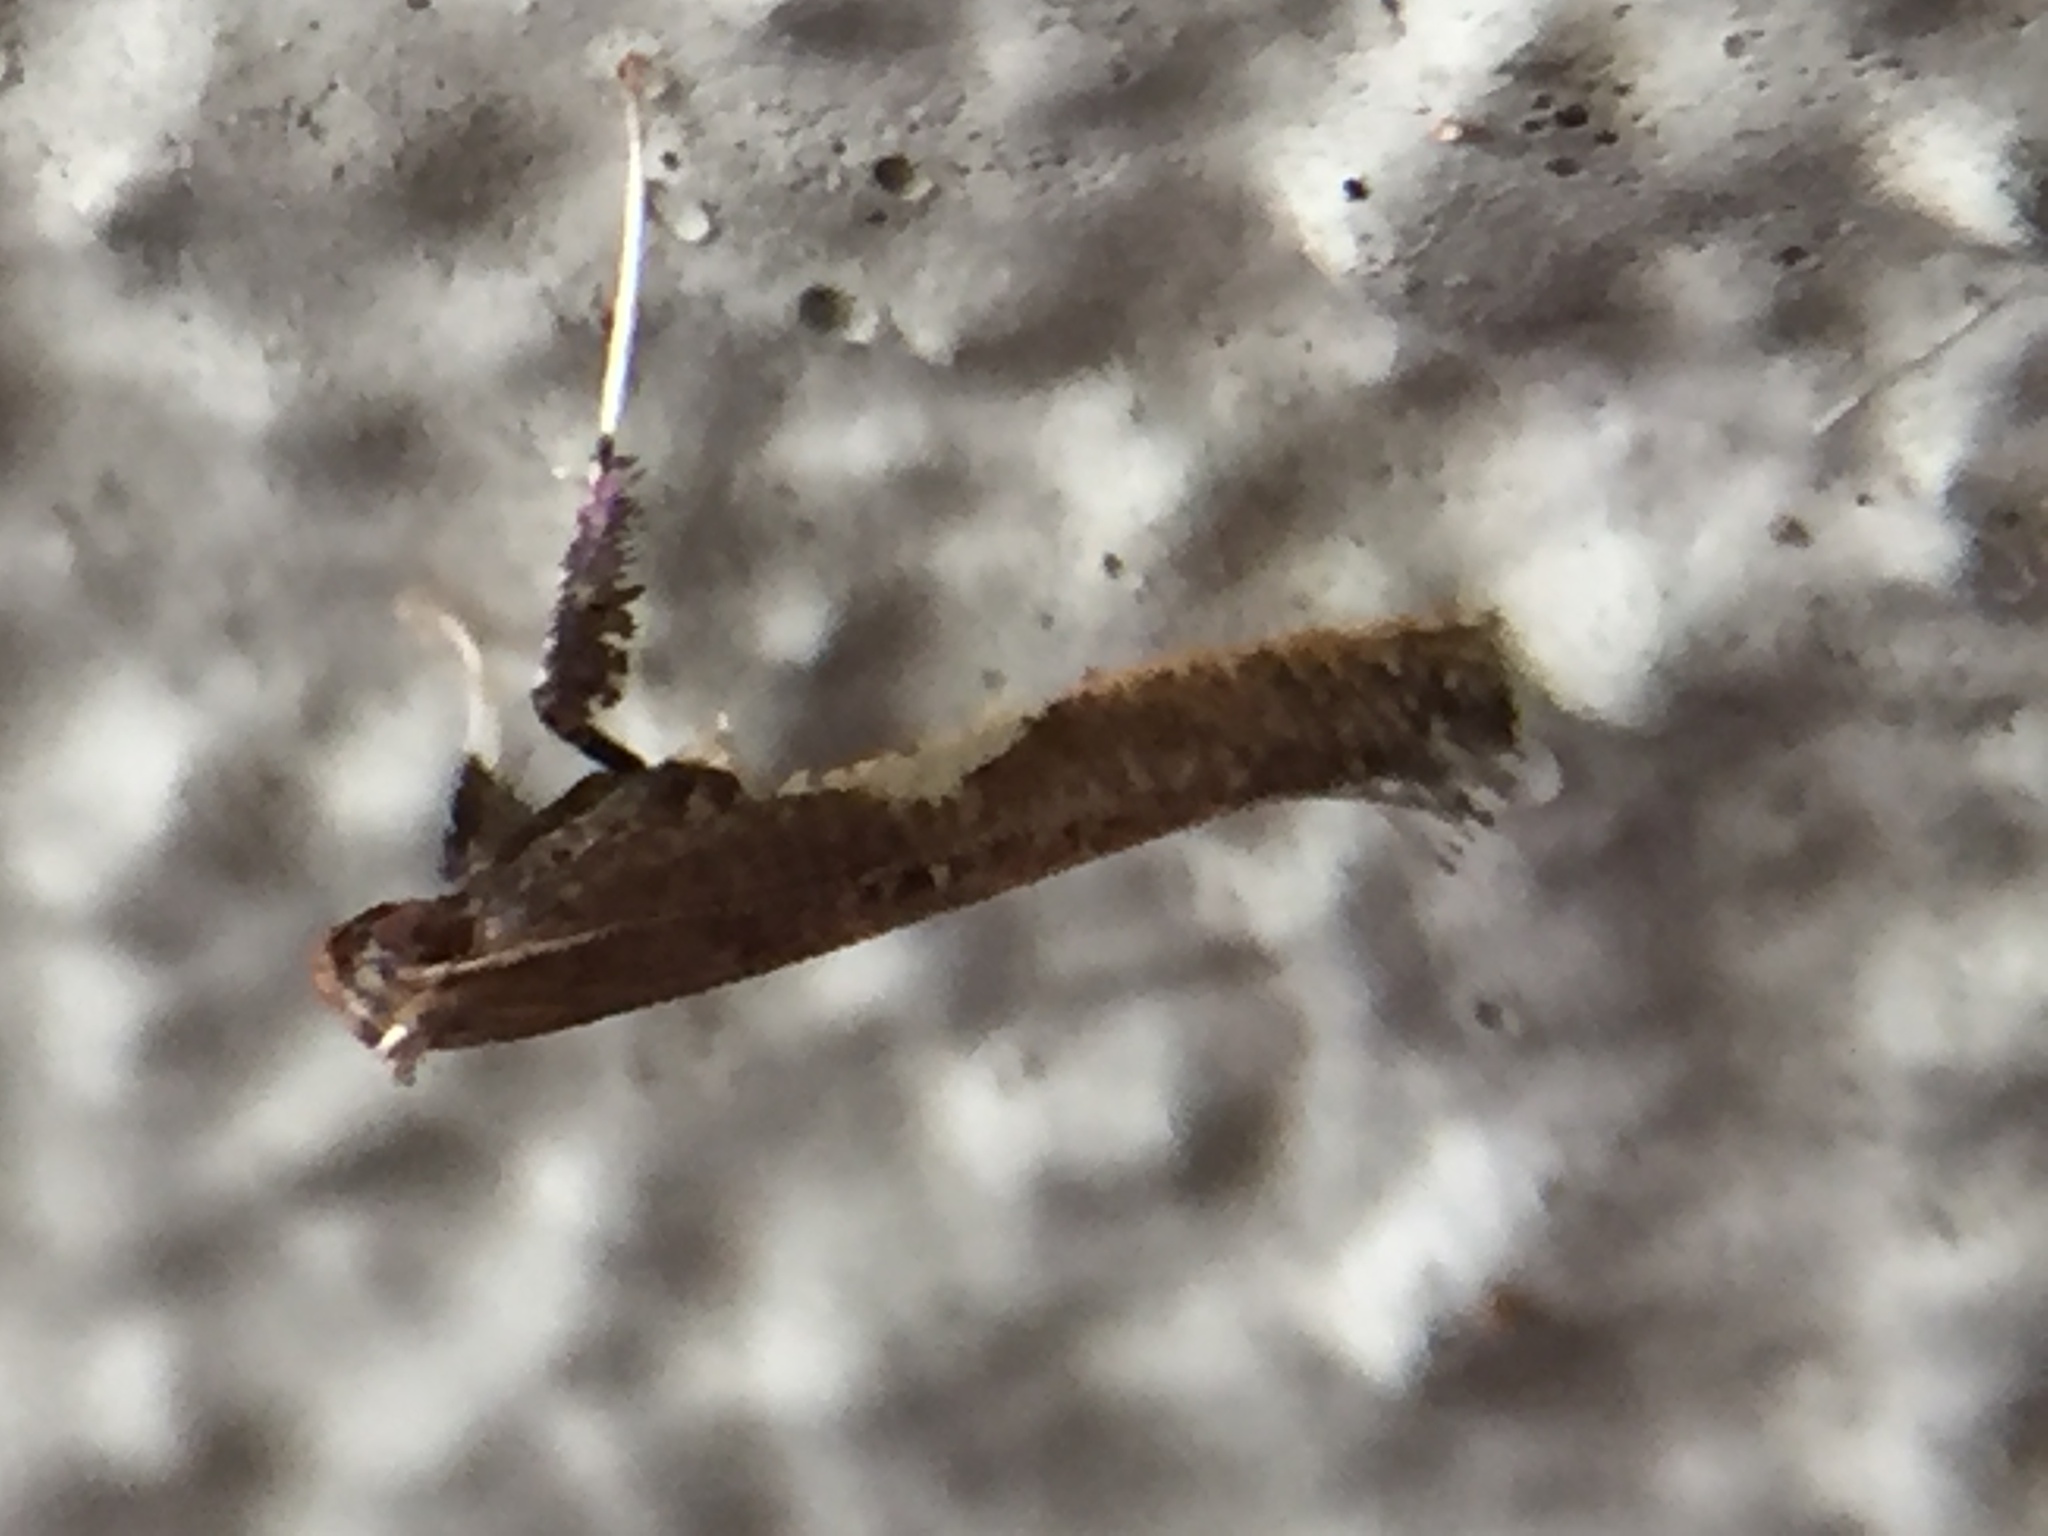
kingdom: Animalia
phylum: Arthropoda
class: Insecta
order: Lepidoptera
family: Gracillariidae
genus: Caloptilia
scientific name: Caloptilia chalcodelta
